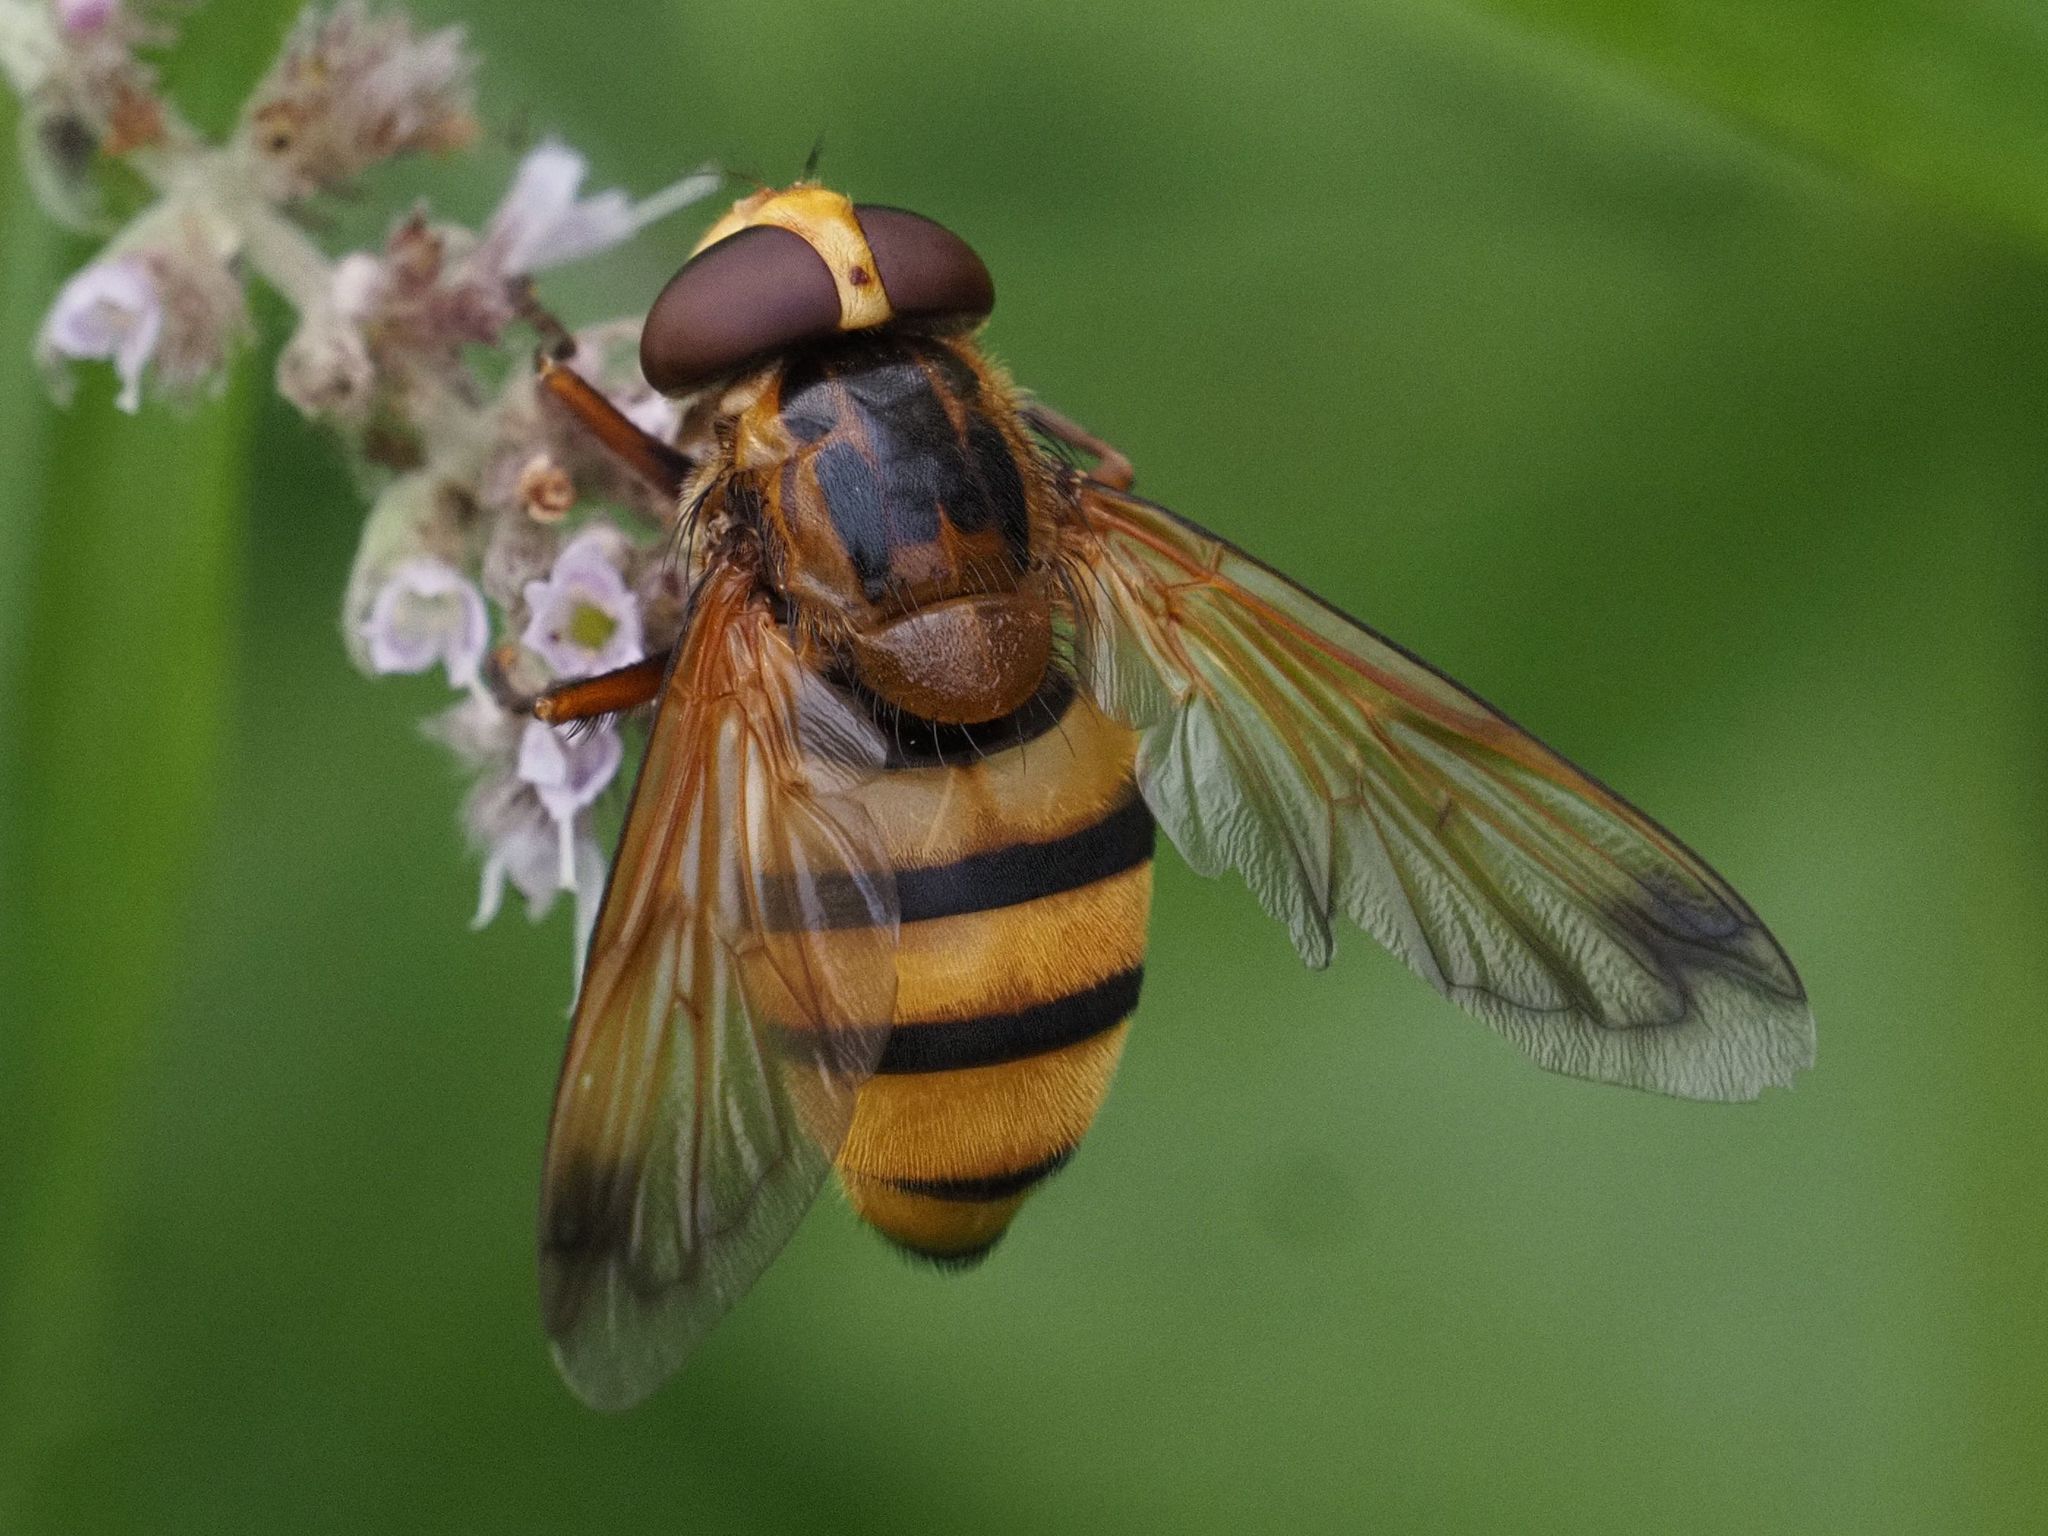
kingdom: Animalia
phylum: Arthropoda
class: Insecta
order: Diptera
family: Syrphidae
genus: Volucella
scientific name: Volucella inanis
